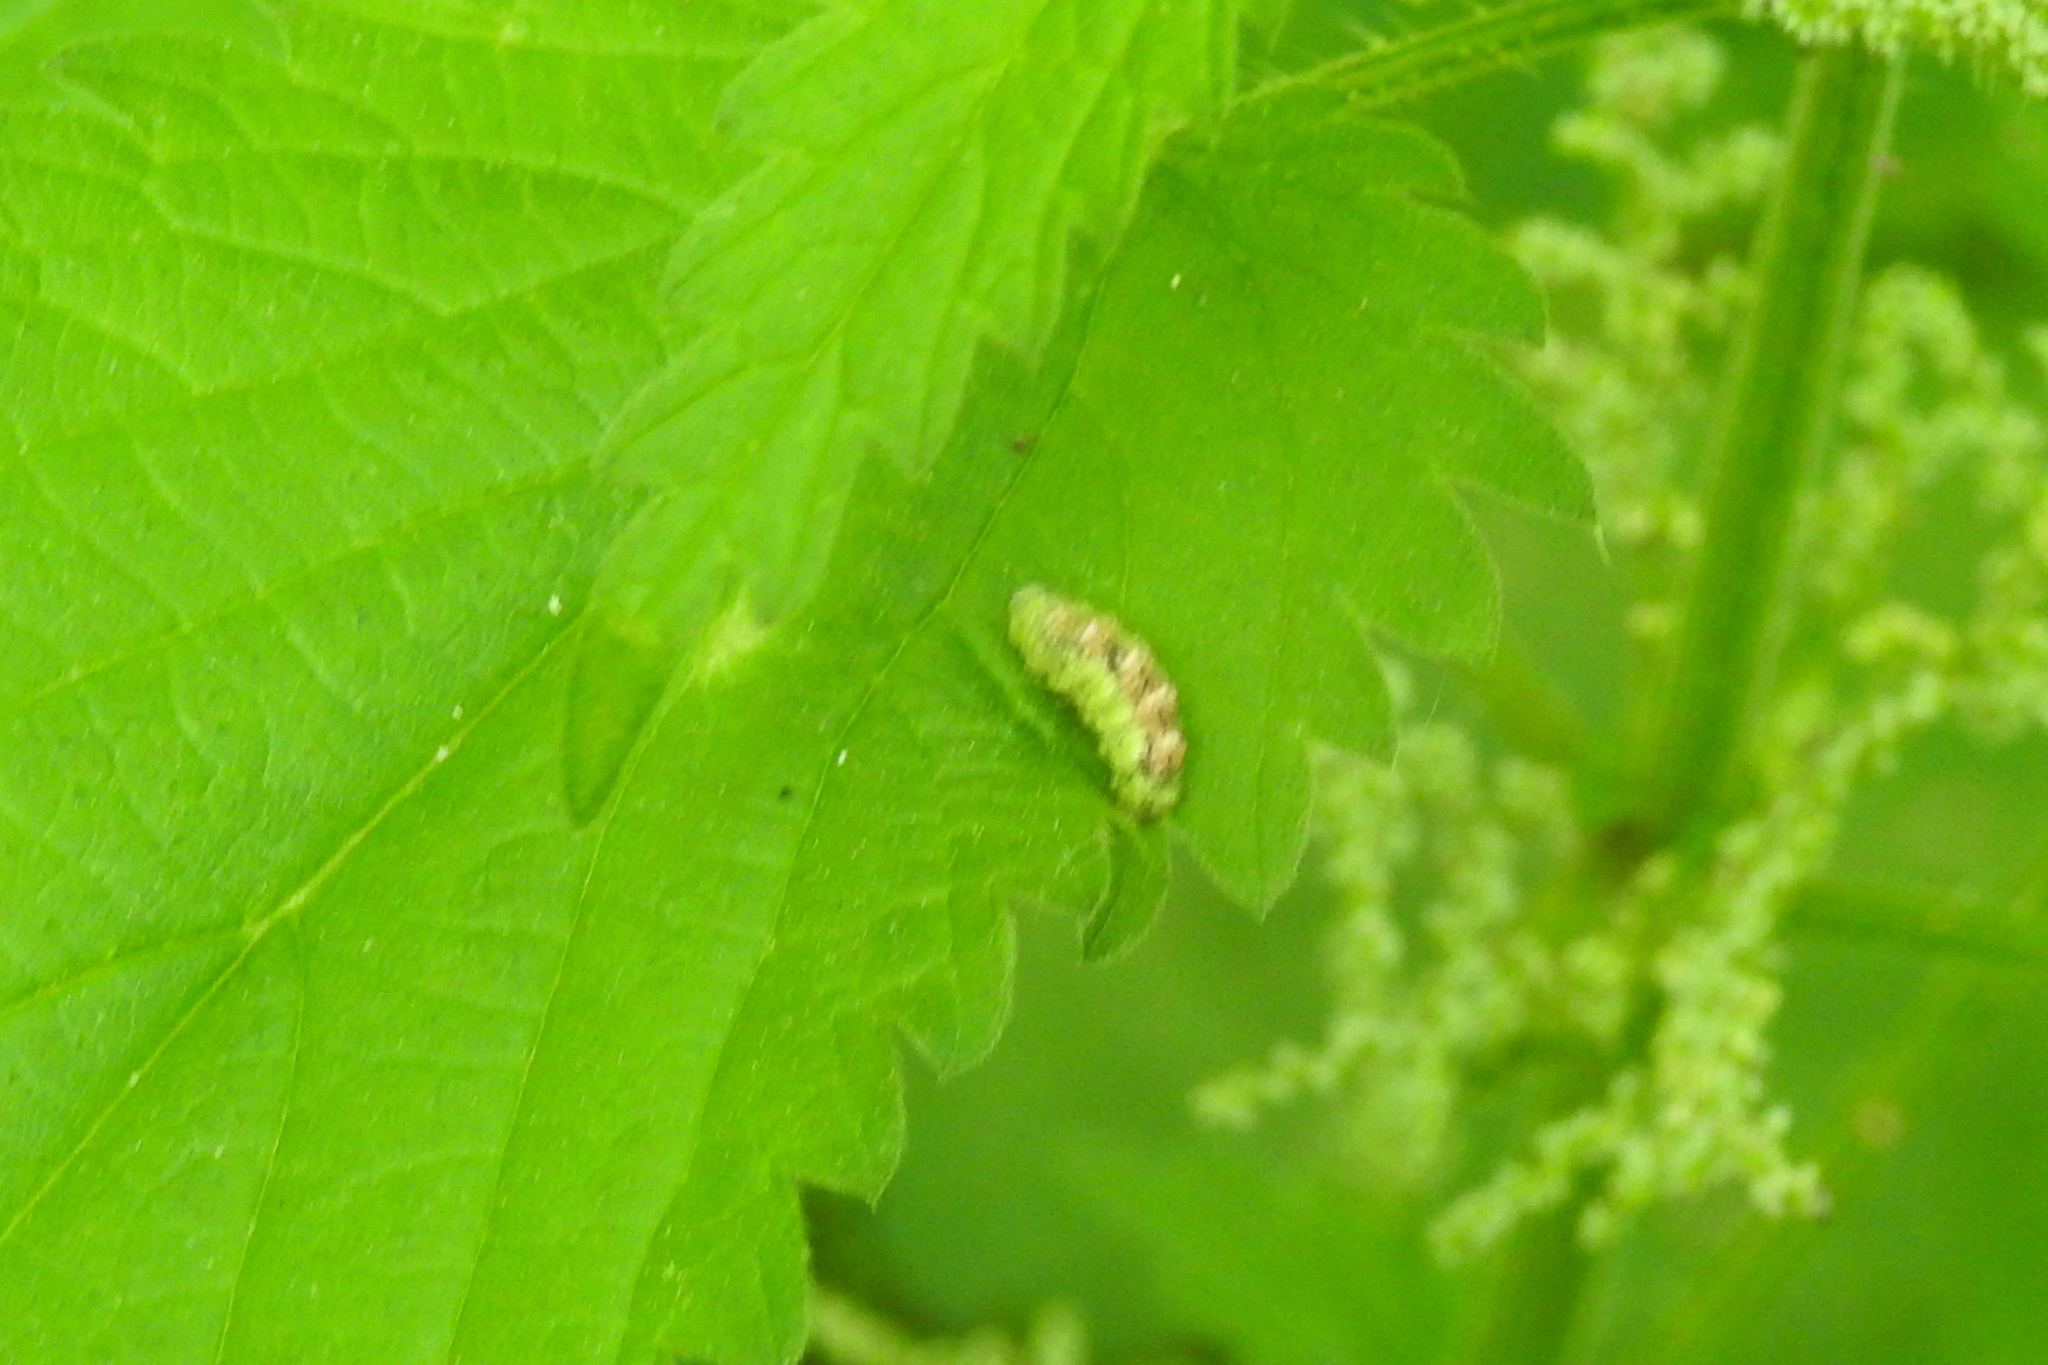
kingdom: Animalia
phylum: Arthropoda
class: Insecta
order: Diptera
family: Syrphidae
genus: Eupeodes
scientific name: Eupeodes pomus
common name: Short-tailed aphideater
